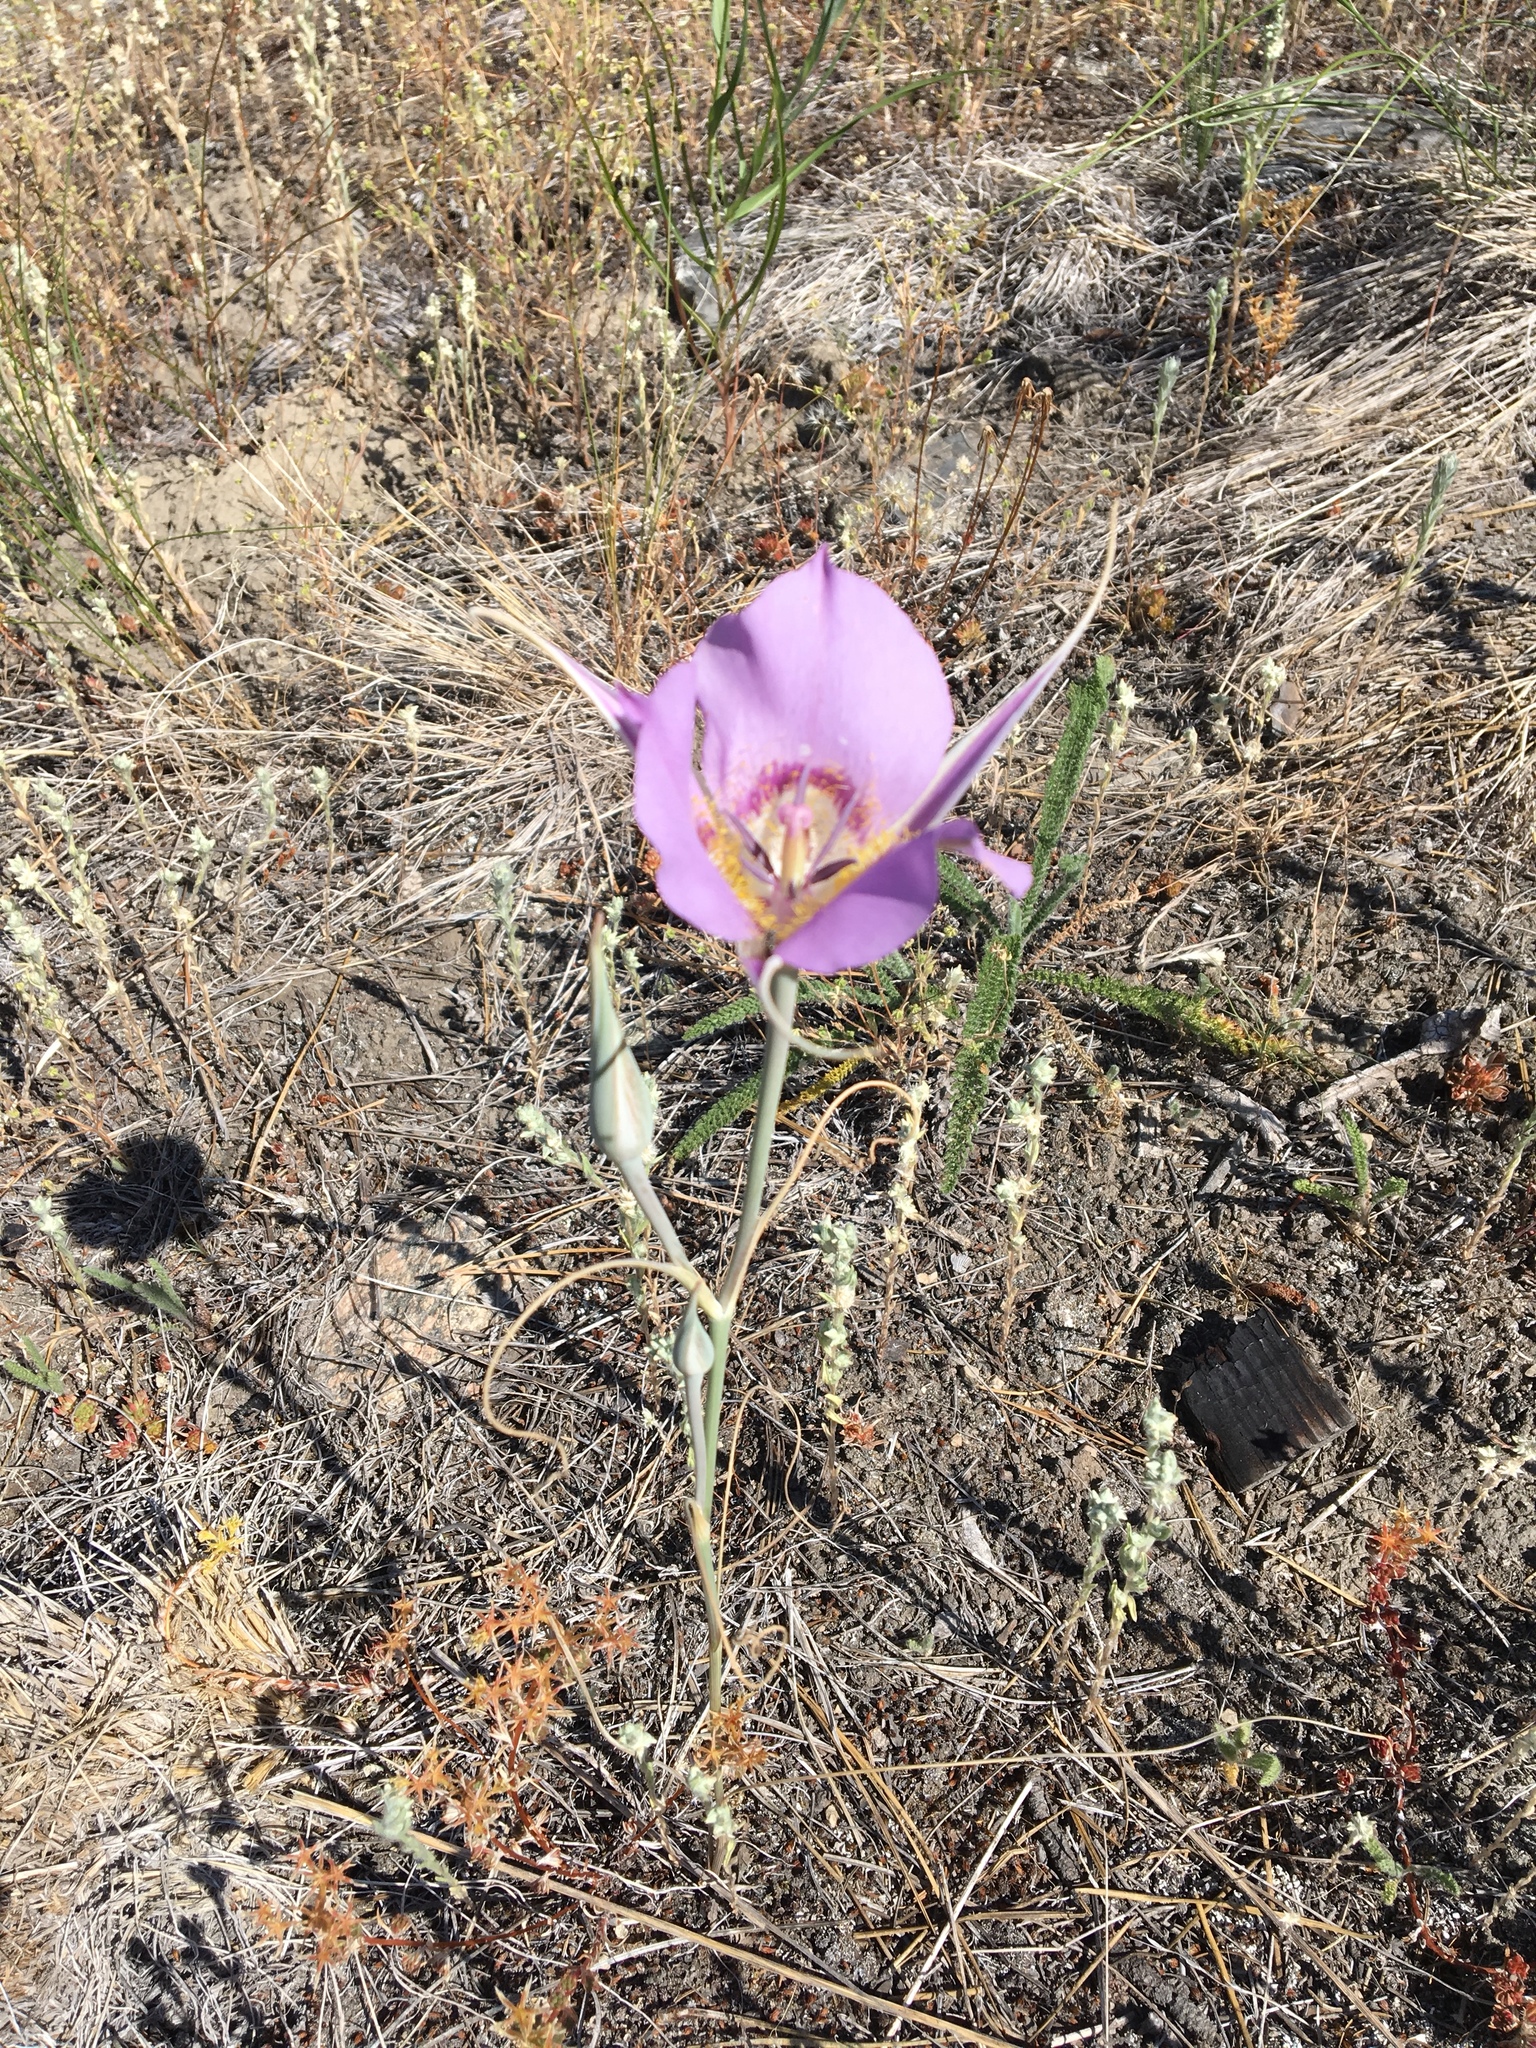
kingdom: Plantae
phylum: Tracheophyta
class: Liliopsida
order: Liliales
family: Liliaceae
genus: Calochortus
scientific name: Calochortus macrocarpus
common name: Green-band mariposa lily
